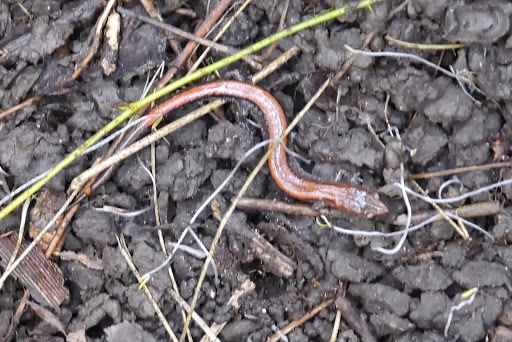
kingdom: Animalia
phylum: Chordata
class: Amphibia
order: Caudata
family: Plethodontidae
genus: Plethodon
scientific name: Plethodon cinereus
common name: Redback salamander
